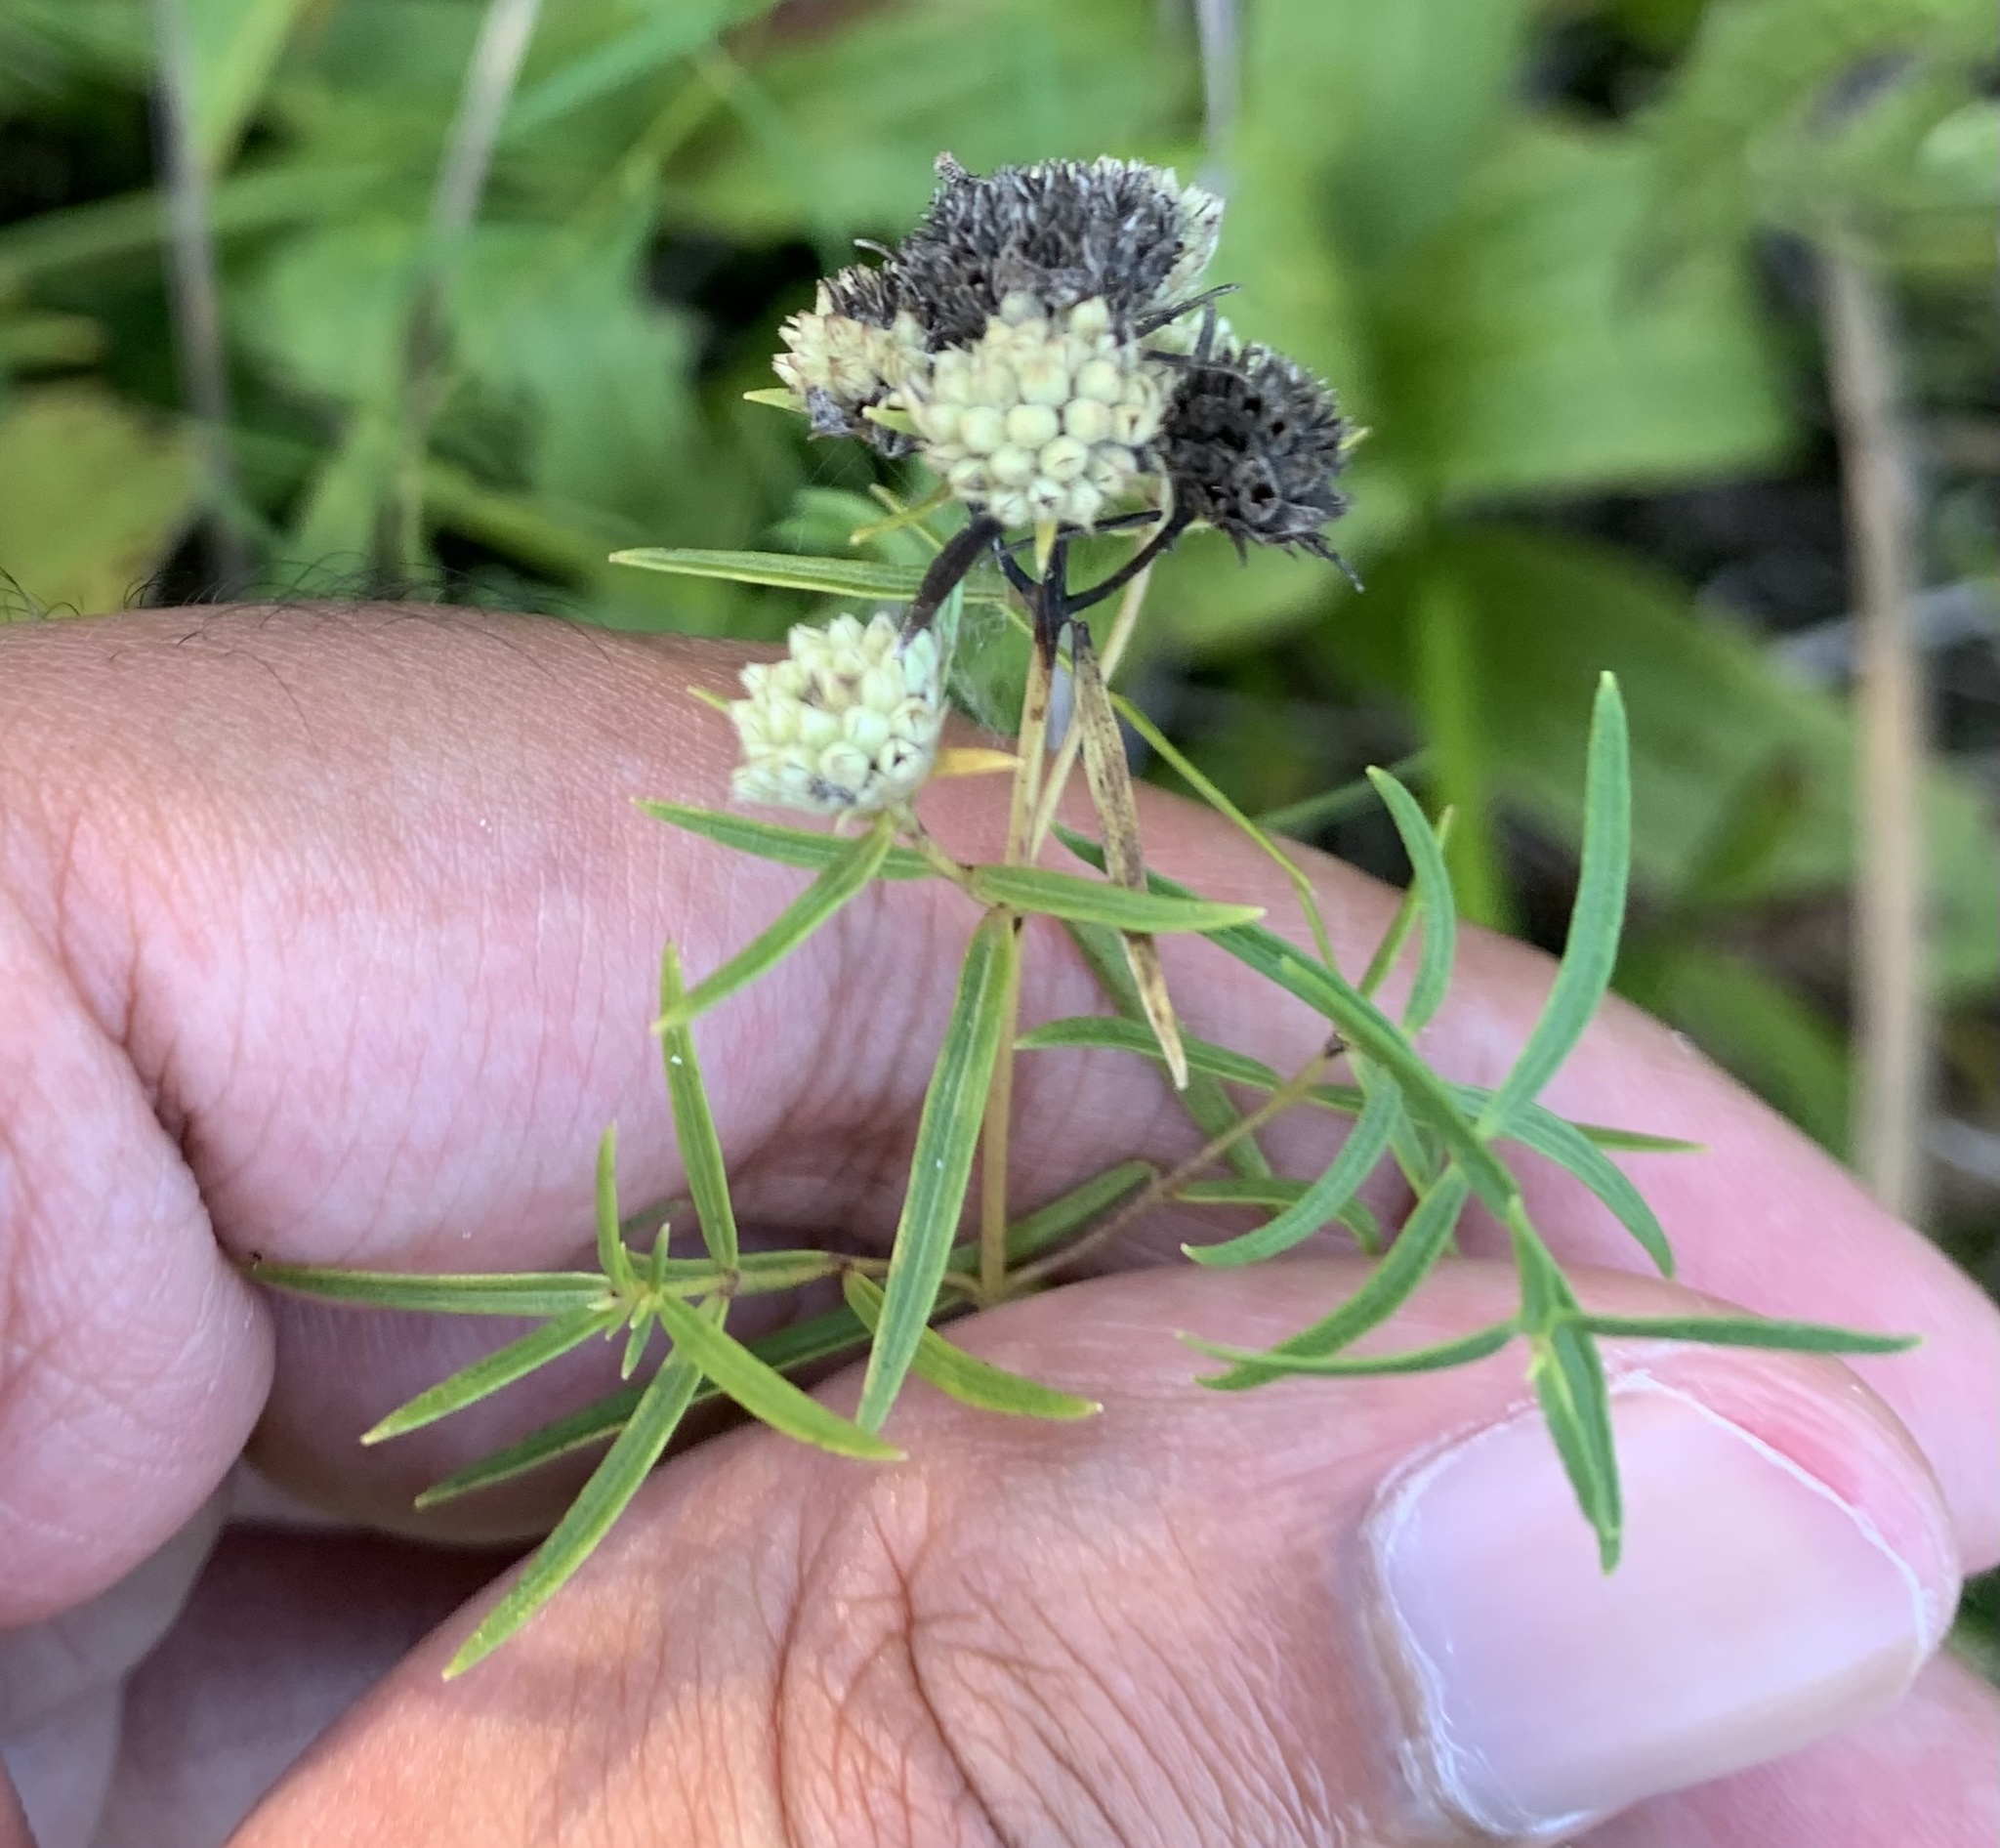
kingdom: Plantae
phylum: Tracheophyta
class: Magnoliopsida
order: Lamiales
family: Lamiaceae
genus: Pycnanthemum
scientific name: Pycnanthemum tenuifolium
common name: Narrow-leaf mountain-mint
